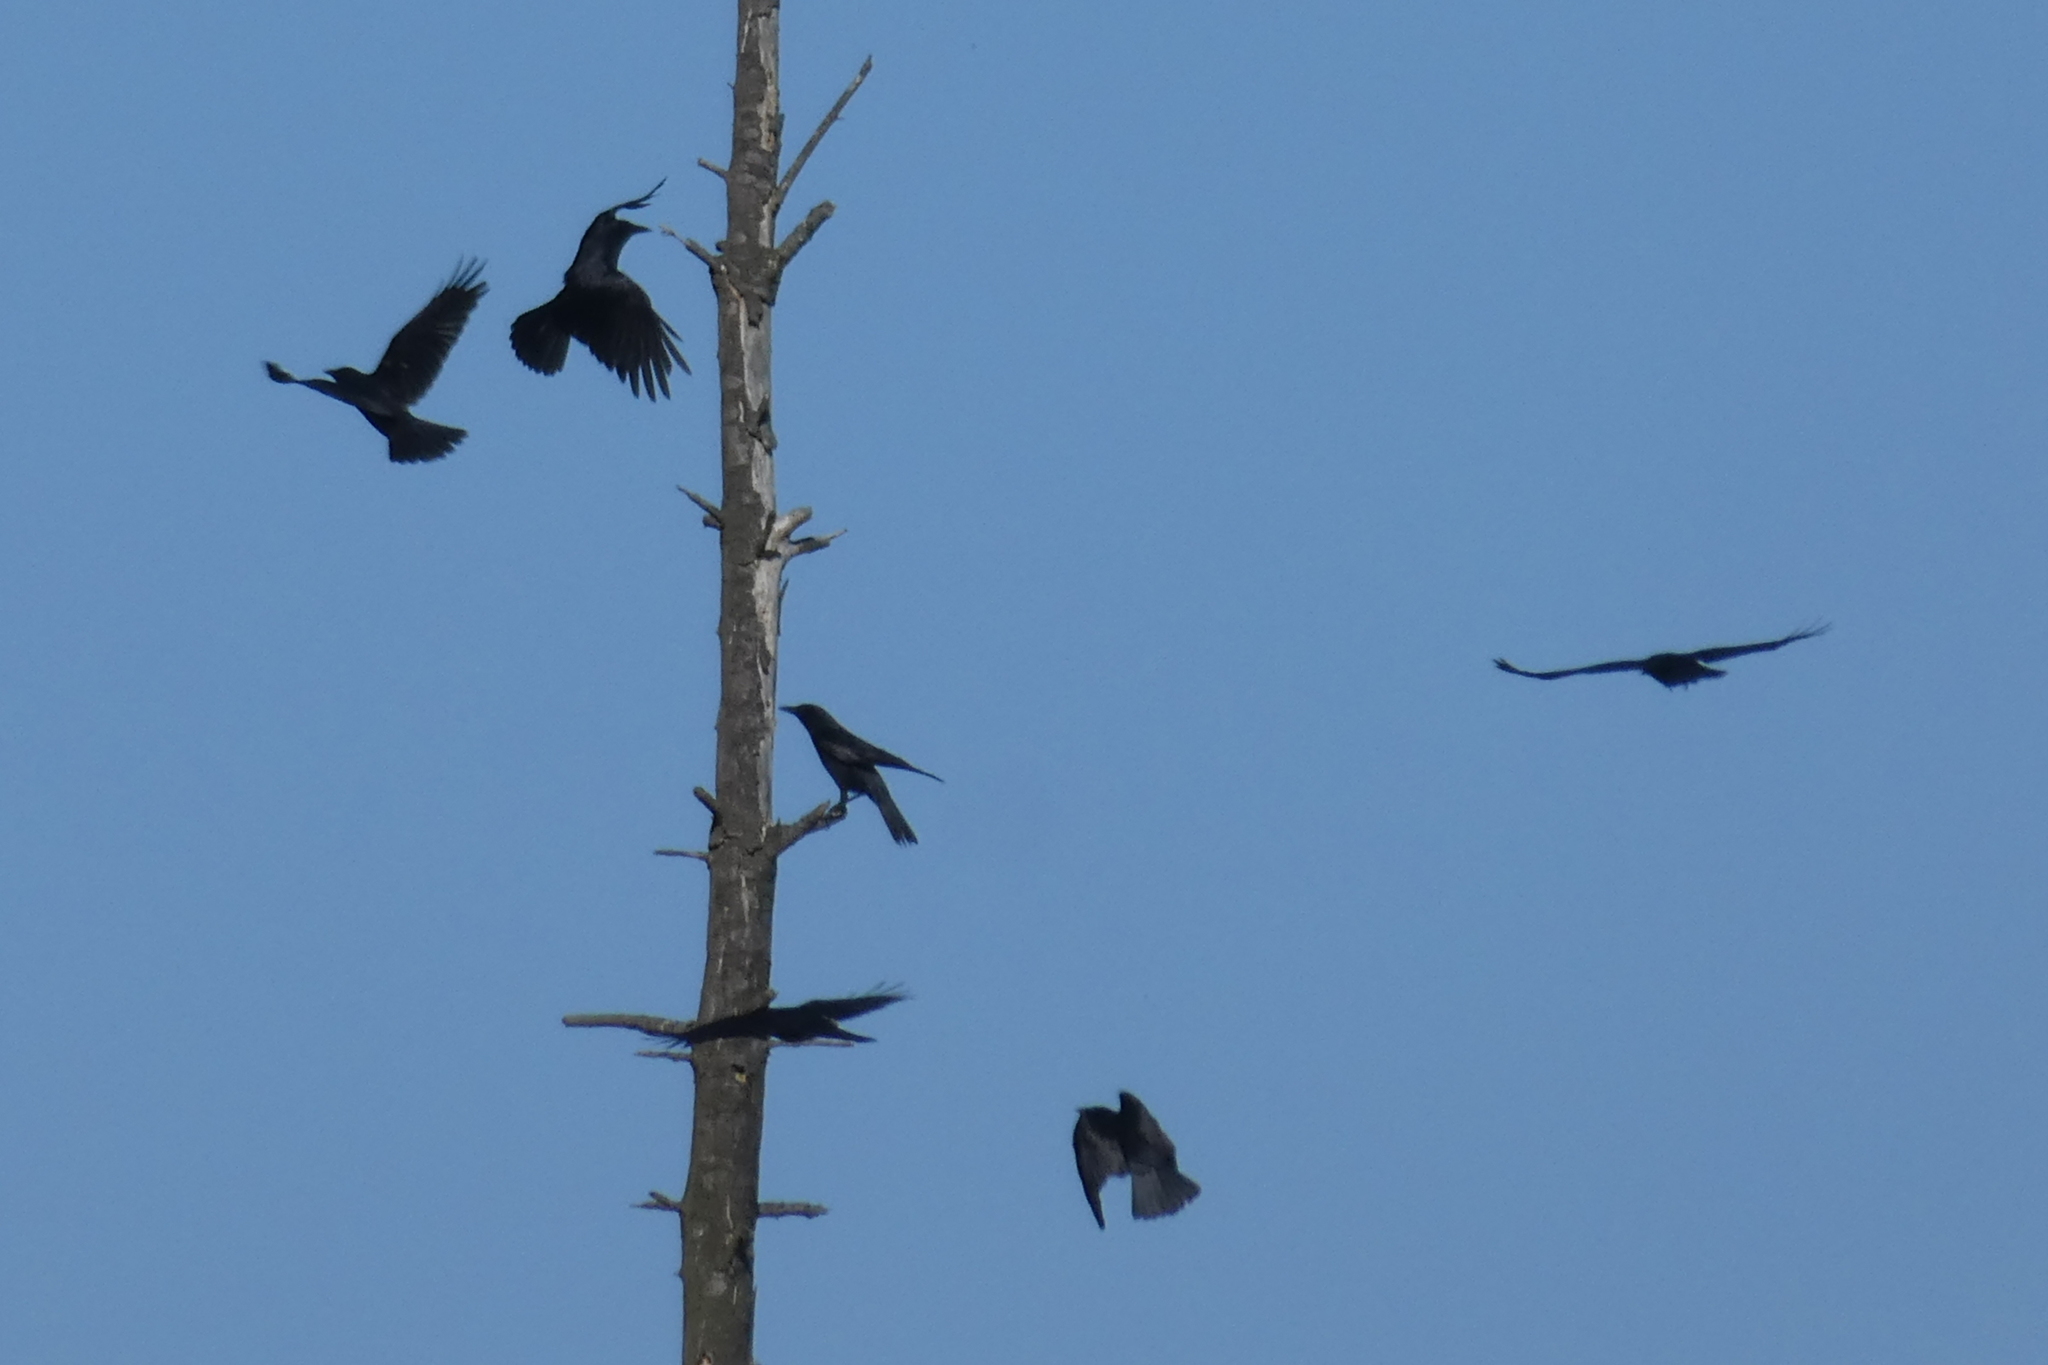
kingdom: Animalia
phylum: Chordata
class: Aves
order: Passeriformes
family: Corvidae
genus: Corvus
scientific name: Corvus brachyrhynchos
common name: American crow
